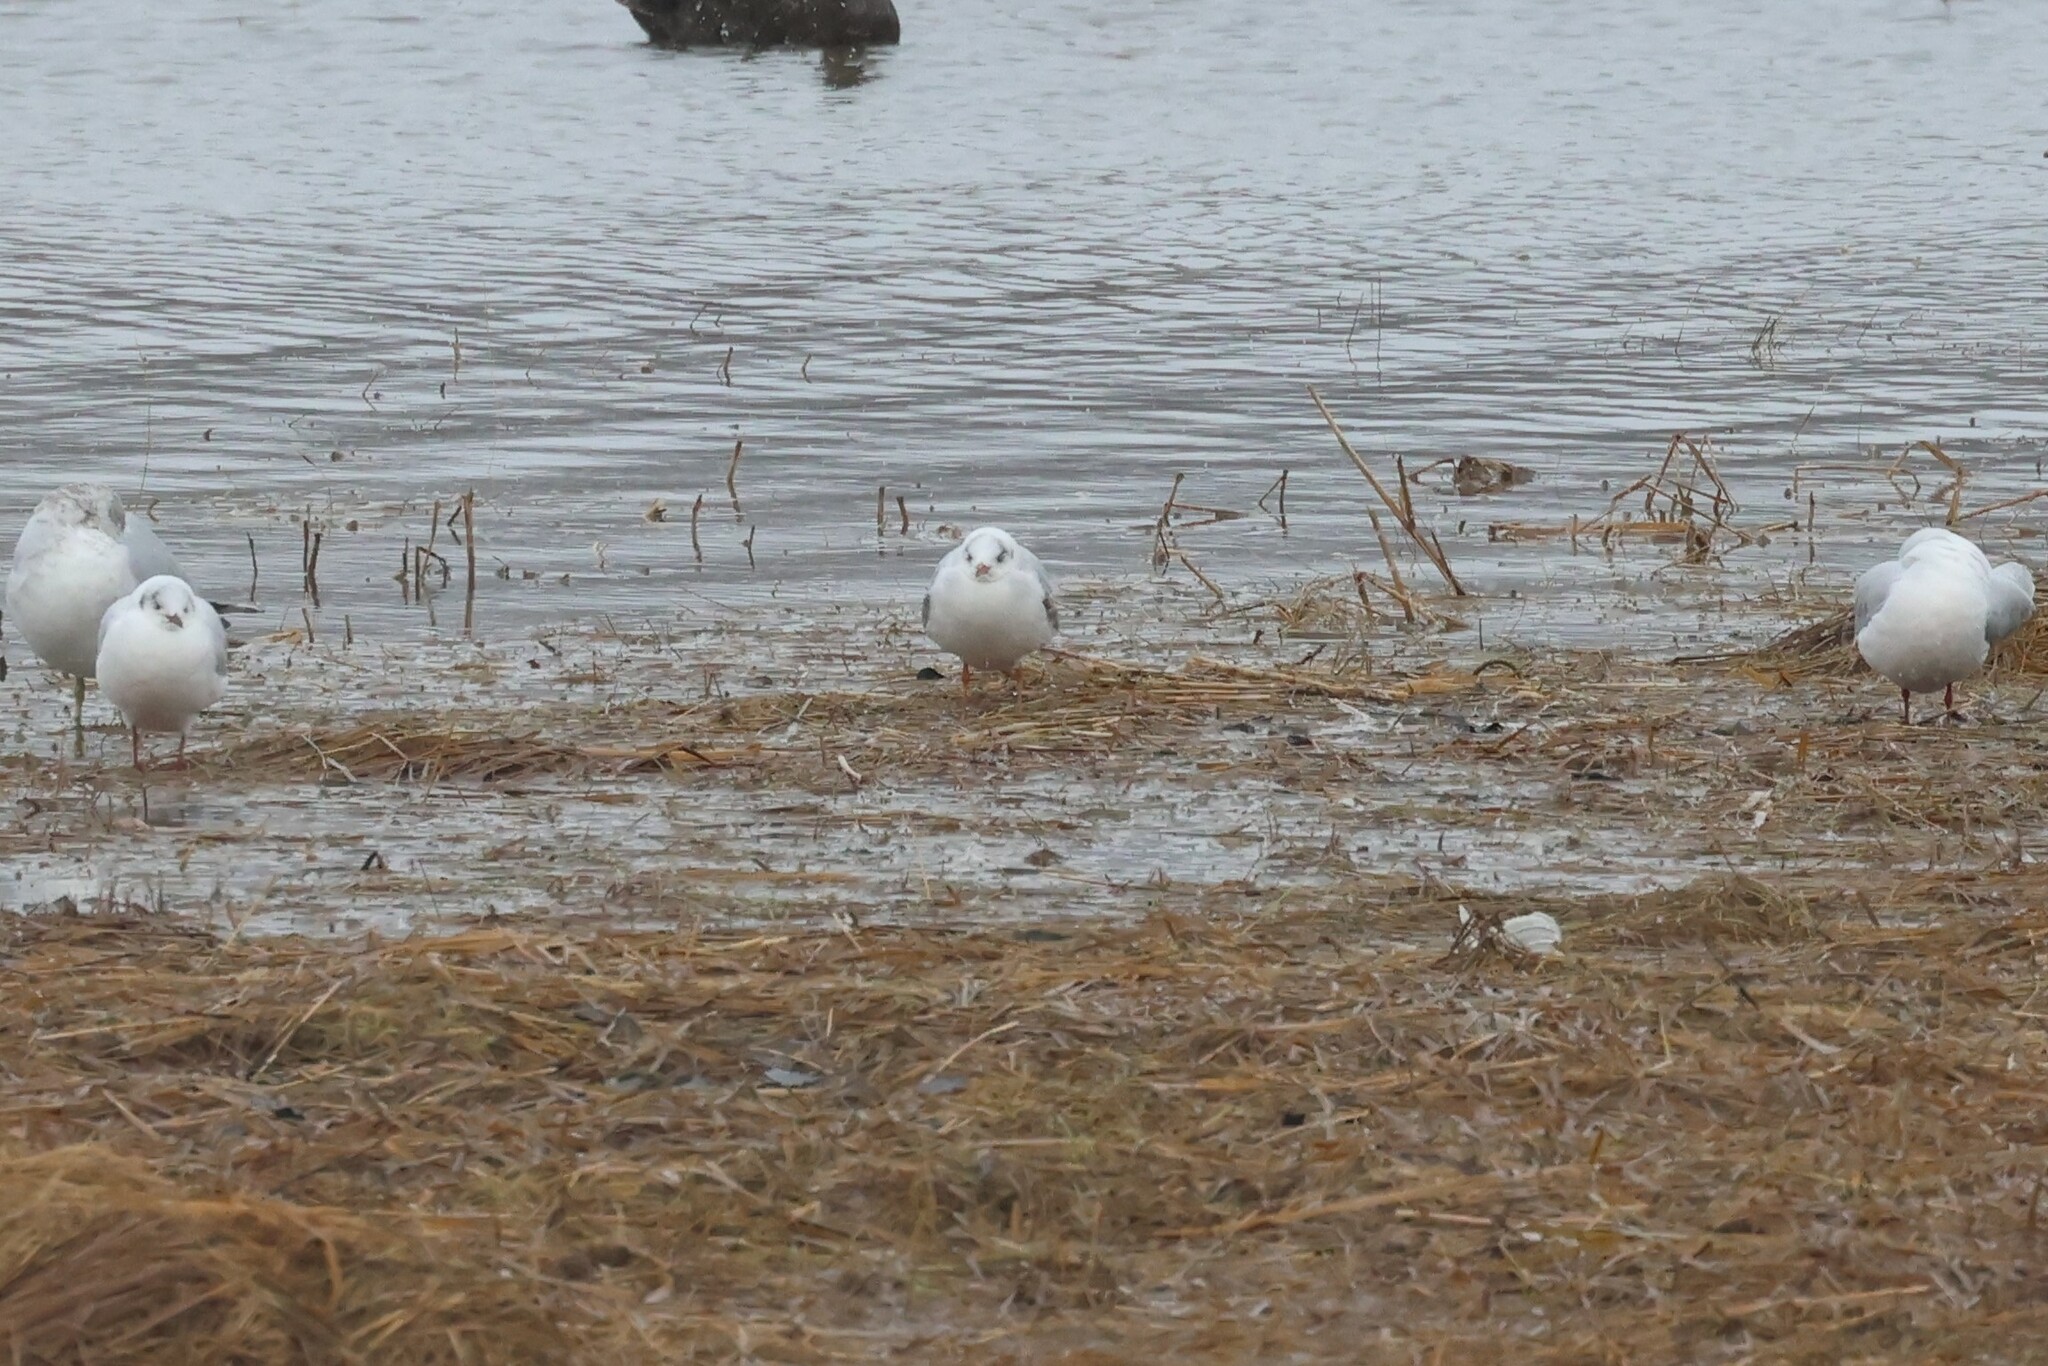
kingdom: Animalia
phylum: Chordata
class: Aves
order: Charadriiformes
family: Laridae
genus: Chroicocephalus
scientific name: Chroicocephalus ridibundus
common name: Black-headed gull
